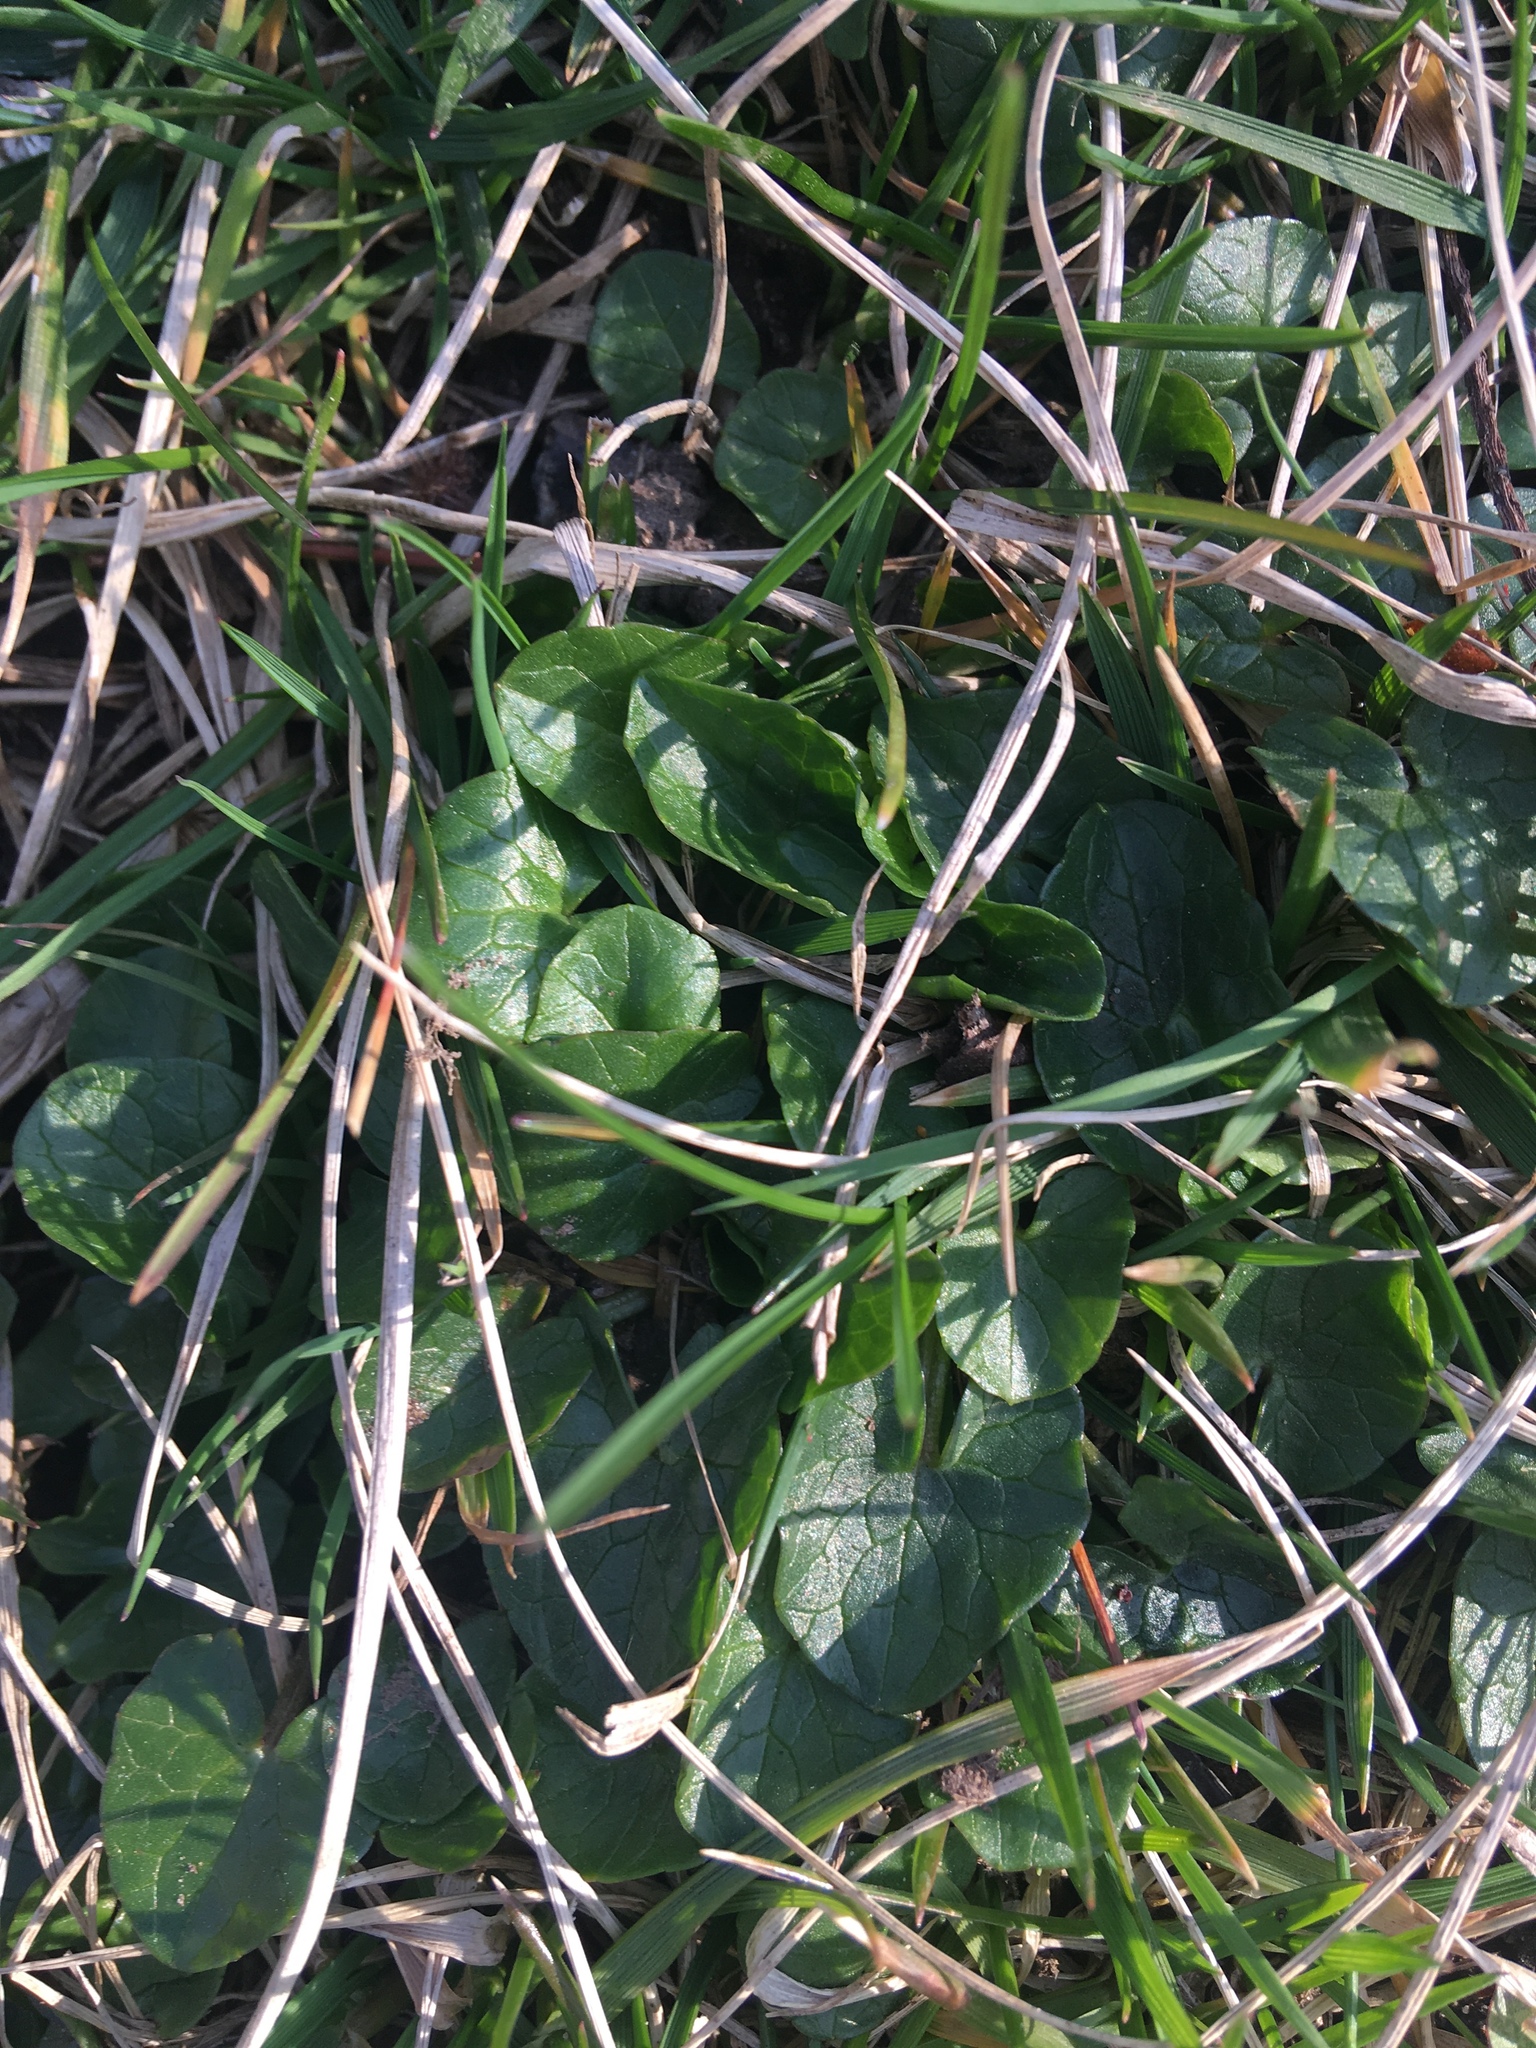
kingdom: Plantae
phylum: Tracheophyta
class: Magnoliopsida
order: Ranunculales
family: Ranunculaceae
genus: Ficaria
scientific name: Ficaria verna
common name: Lesser celandine
